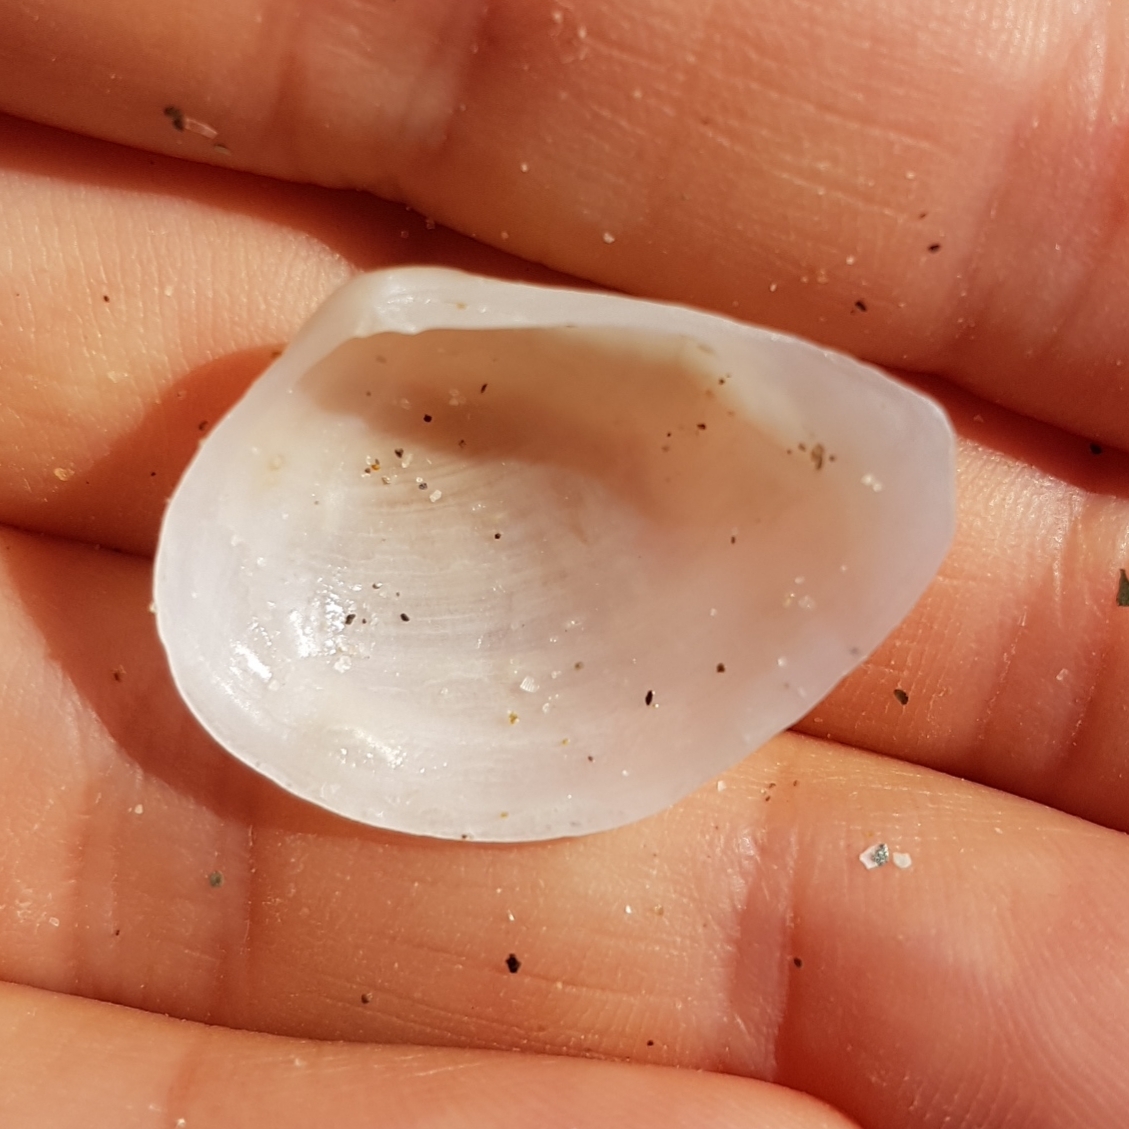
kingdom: Animalia
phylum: Mollusca
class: Bivalvia
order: Cardiida
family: Tellinidae
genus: Gastrana
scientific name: Gastrana fragilis
